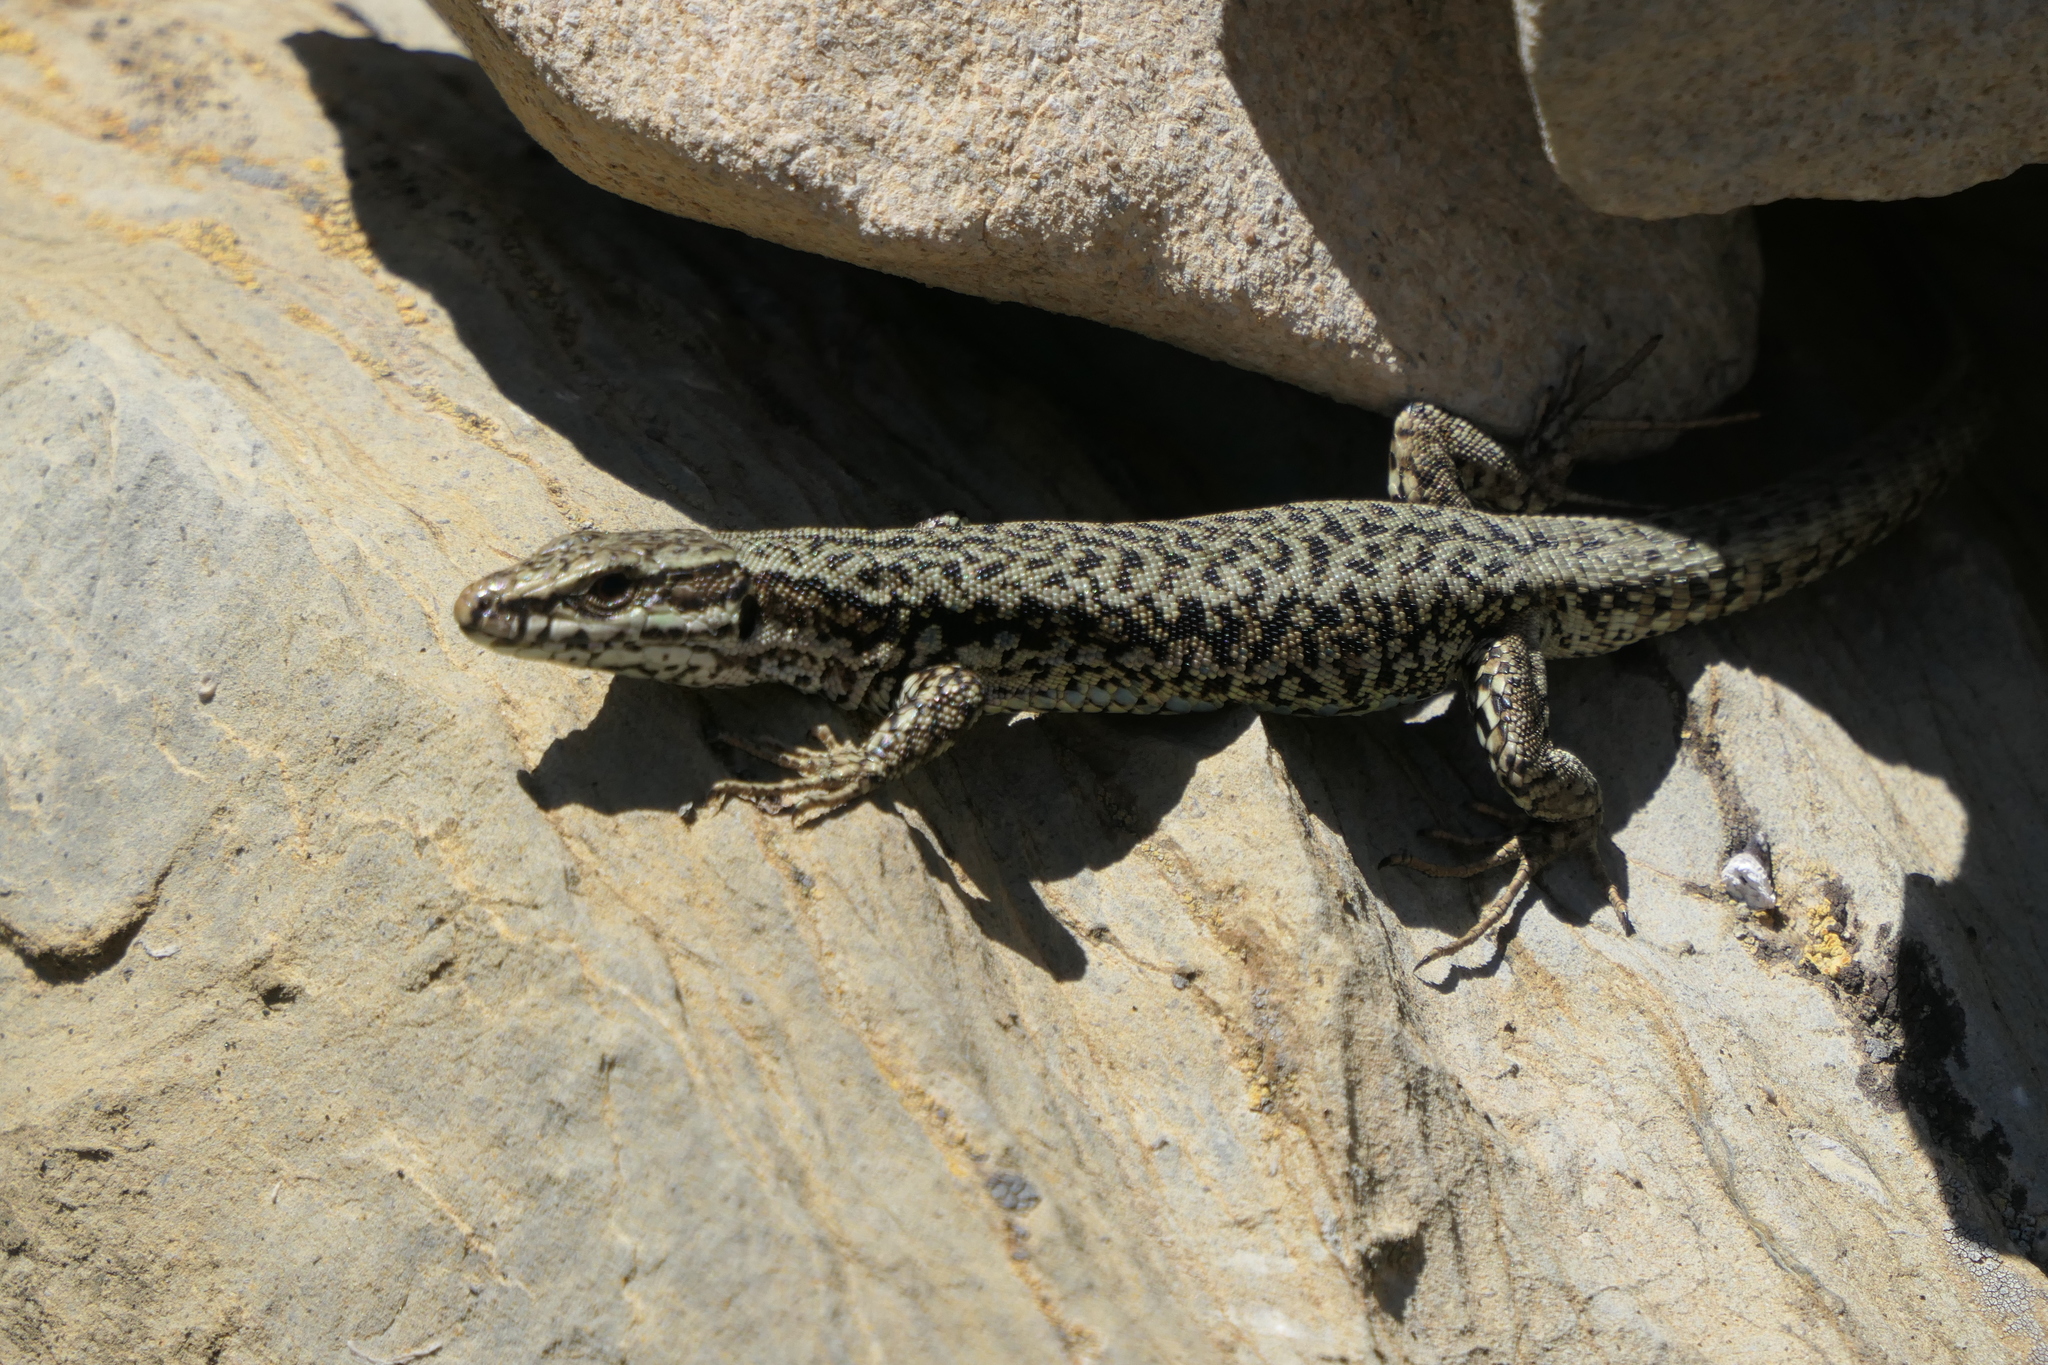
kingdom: Animalia
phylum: Chordata
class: Squamata
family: Lacertidae
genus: Podarcis
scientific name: Podarcis muralis
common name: Common wall lizard
